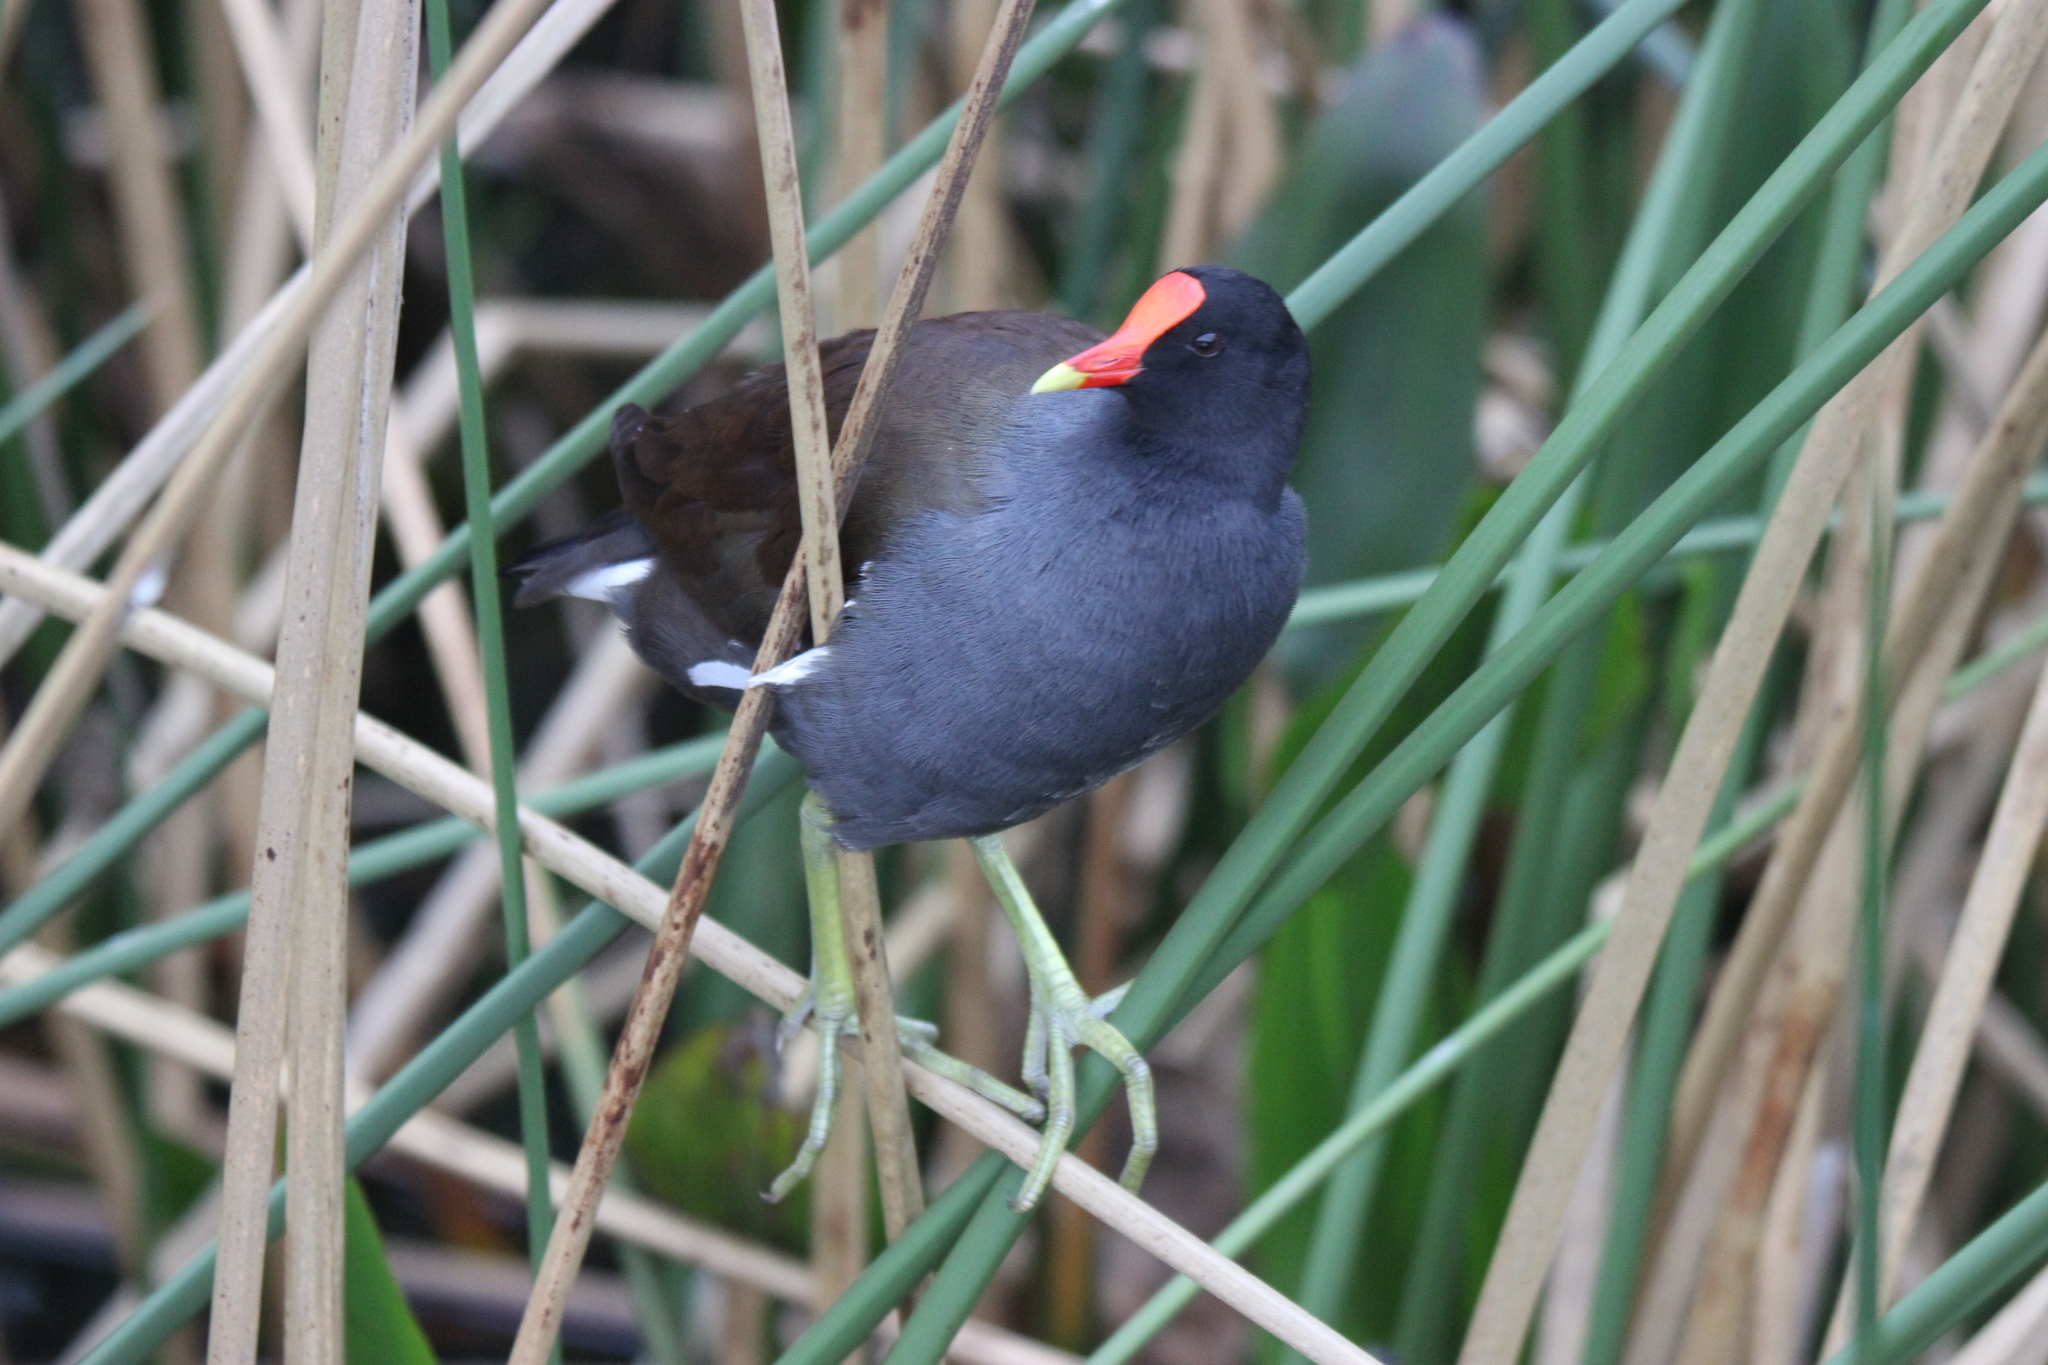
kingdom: Animalia
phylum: Chordata
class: Aves
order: Gruiformes
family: Rallidae
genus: Gallinula
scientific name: Gallinula chloropus
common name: Common moorhen
